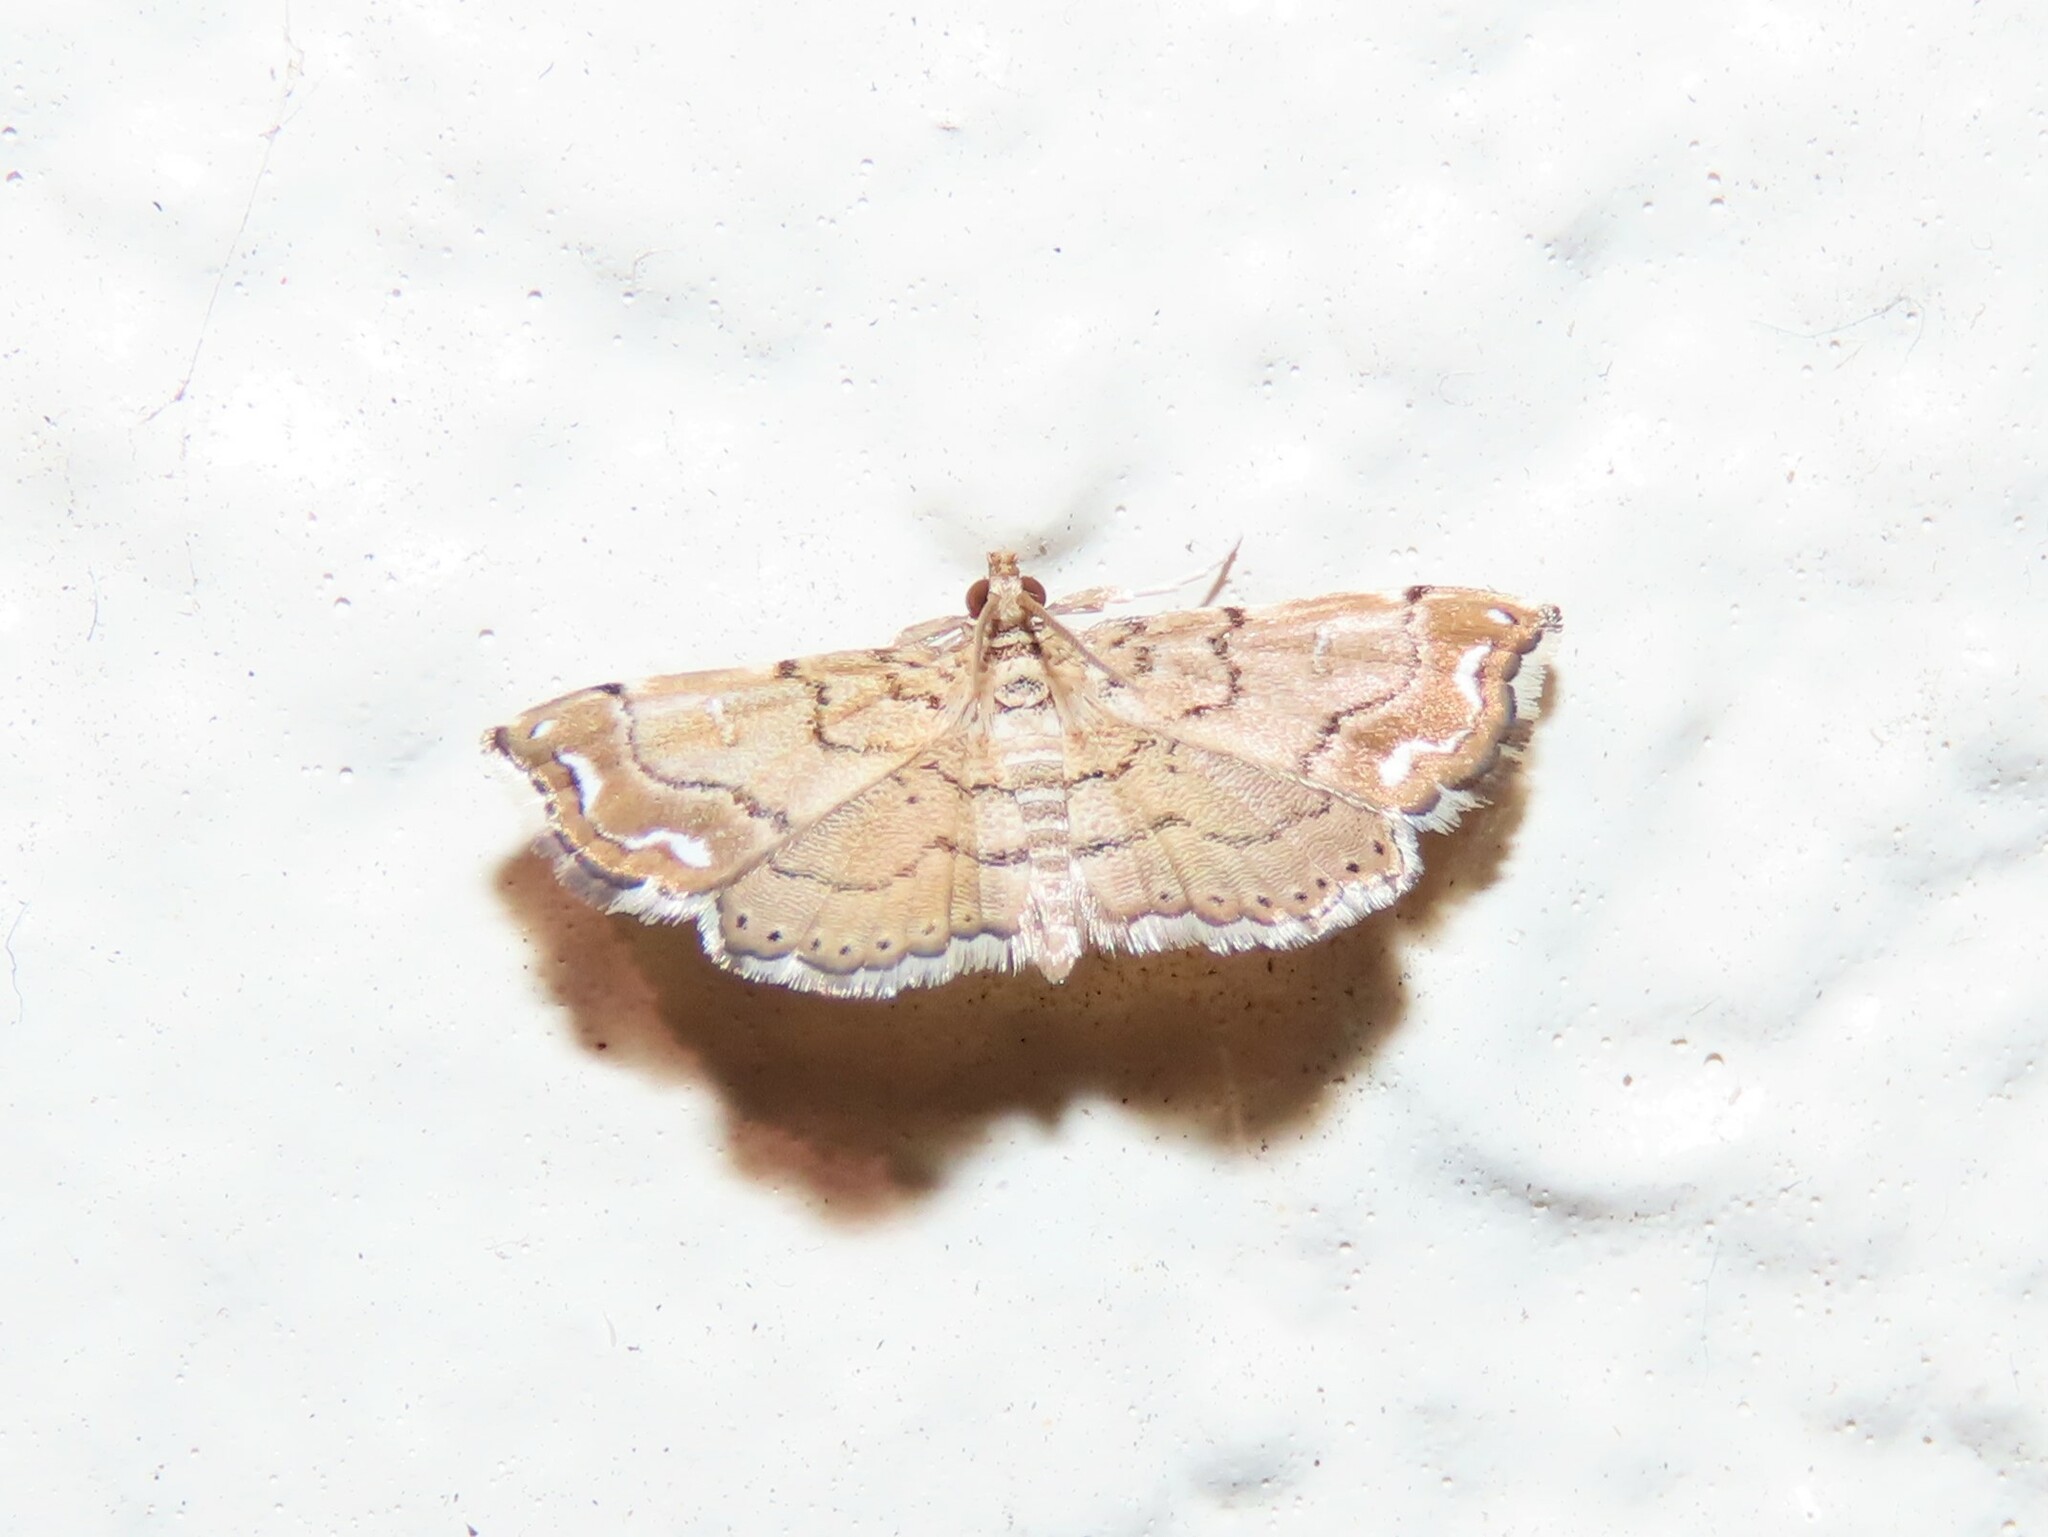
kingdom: Animalia
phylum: Arthropoda
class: Insecta
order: Lepidoptera
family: Pyralidae
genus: Neomusotima
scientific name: Neomusotima conspurcatalis
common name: Lygodium defoliator moth
